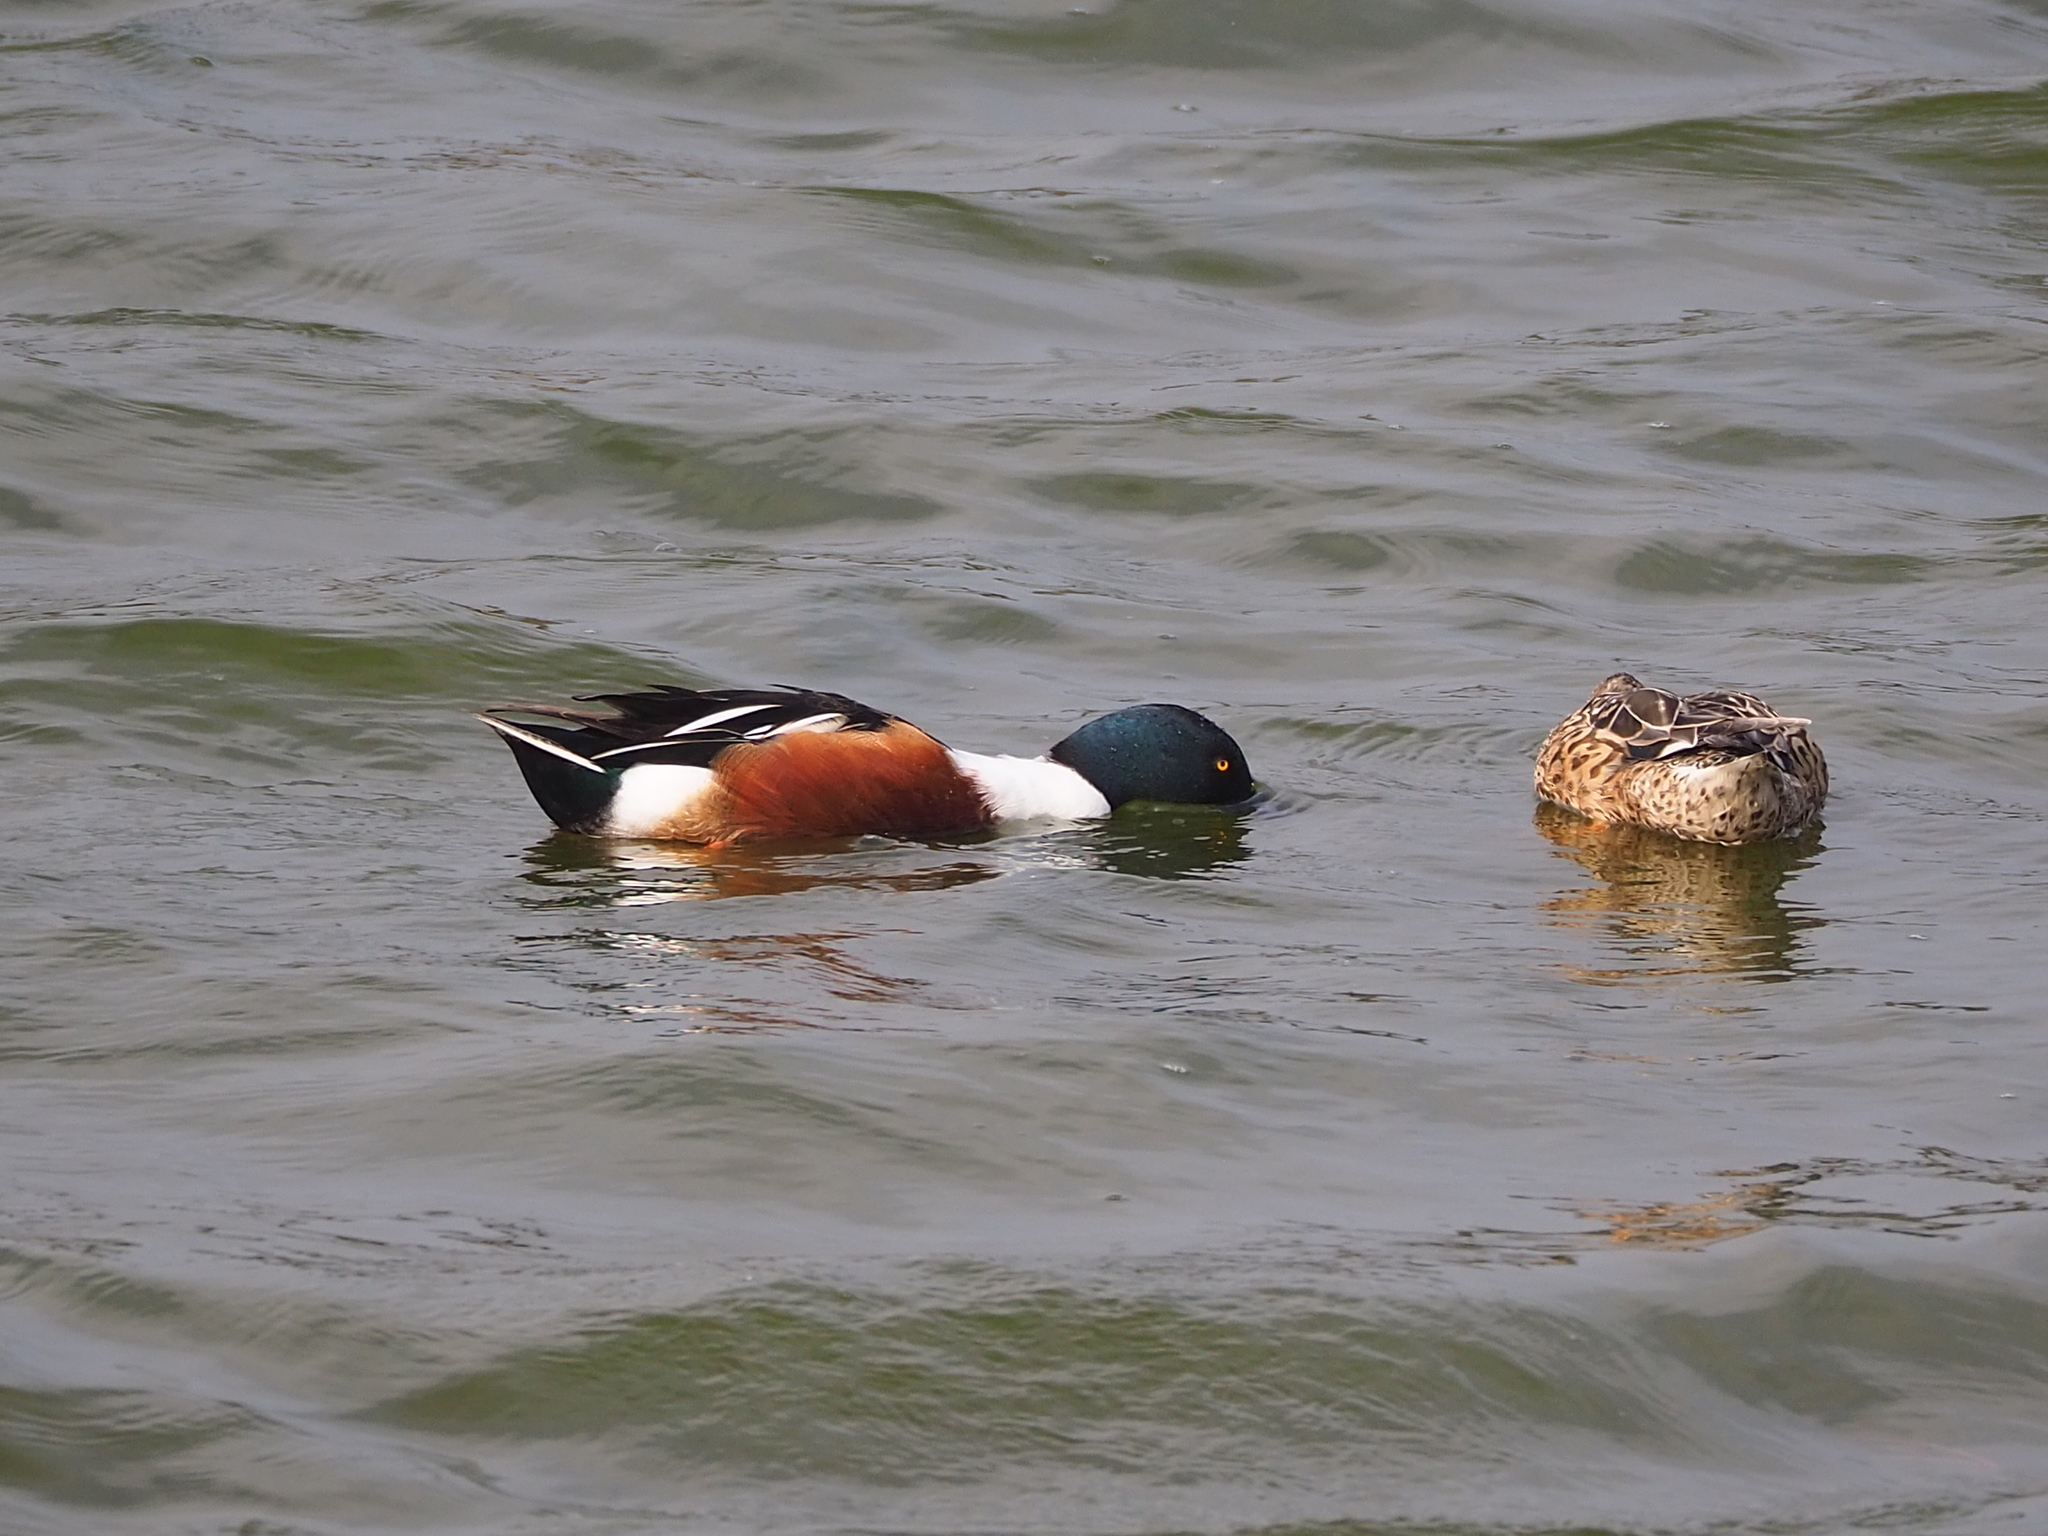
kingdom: Animalia
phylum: Chordata
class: Aves
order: Anseriformes
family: Anatidae
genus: Spatula
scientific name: Spatula clypeata
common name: Northern shoveler
